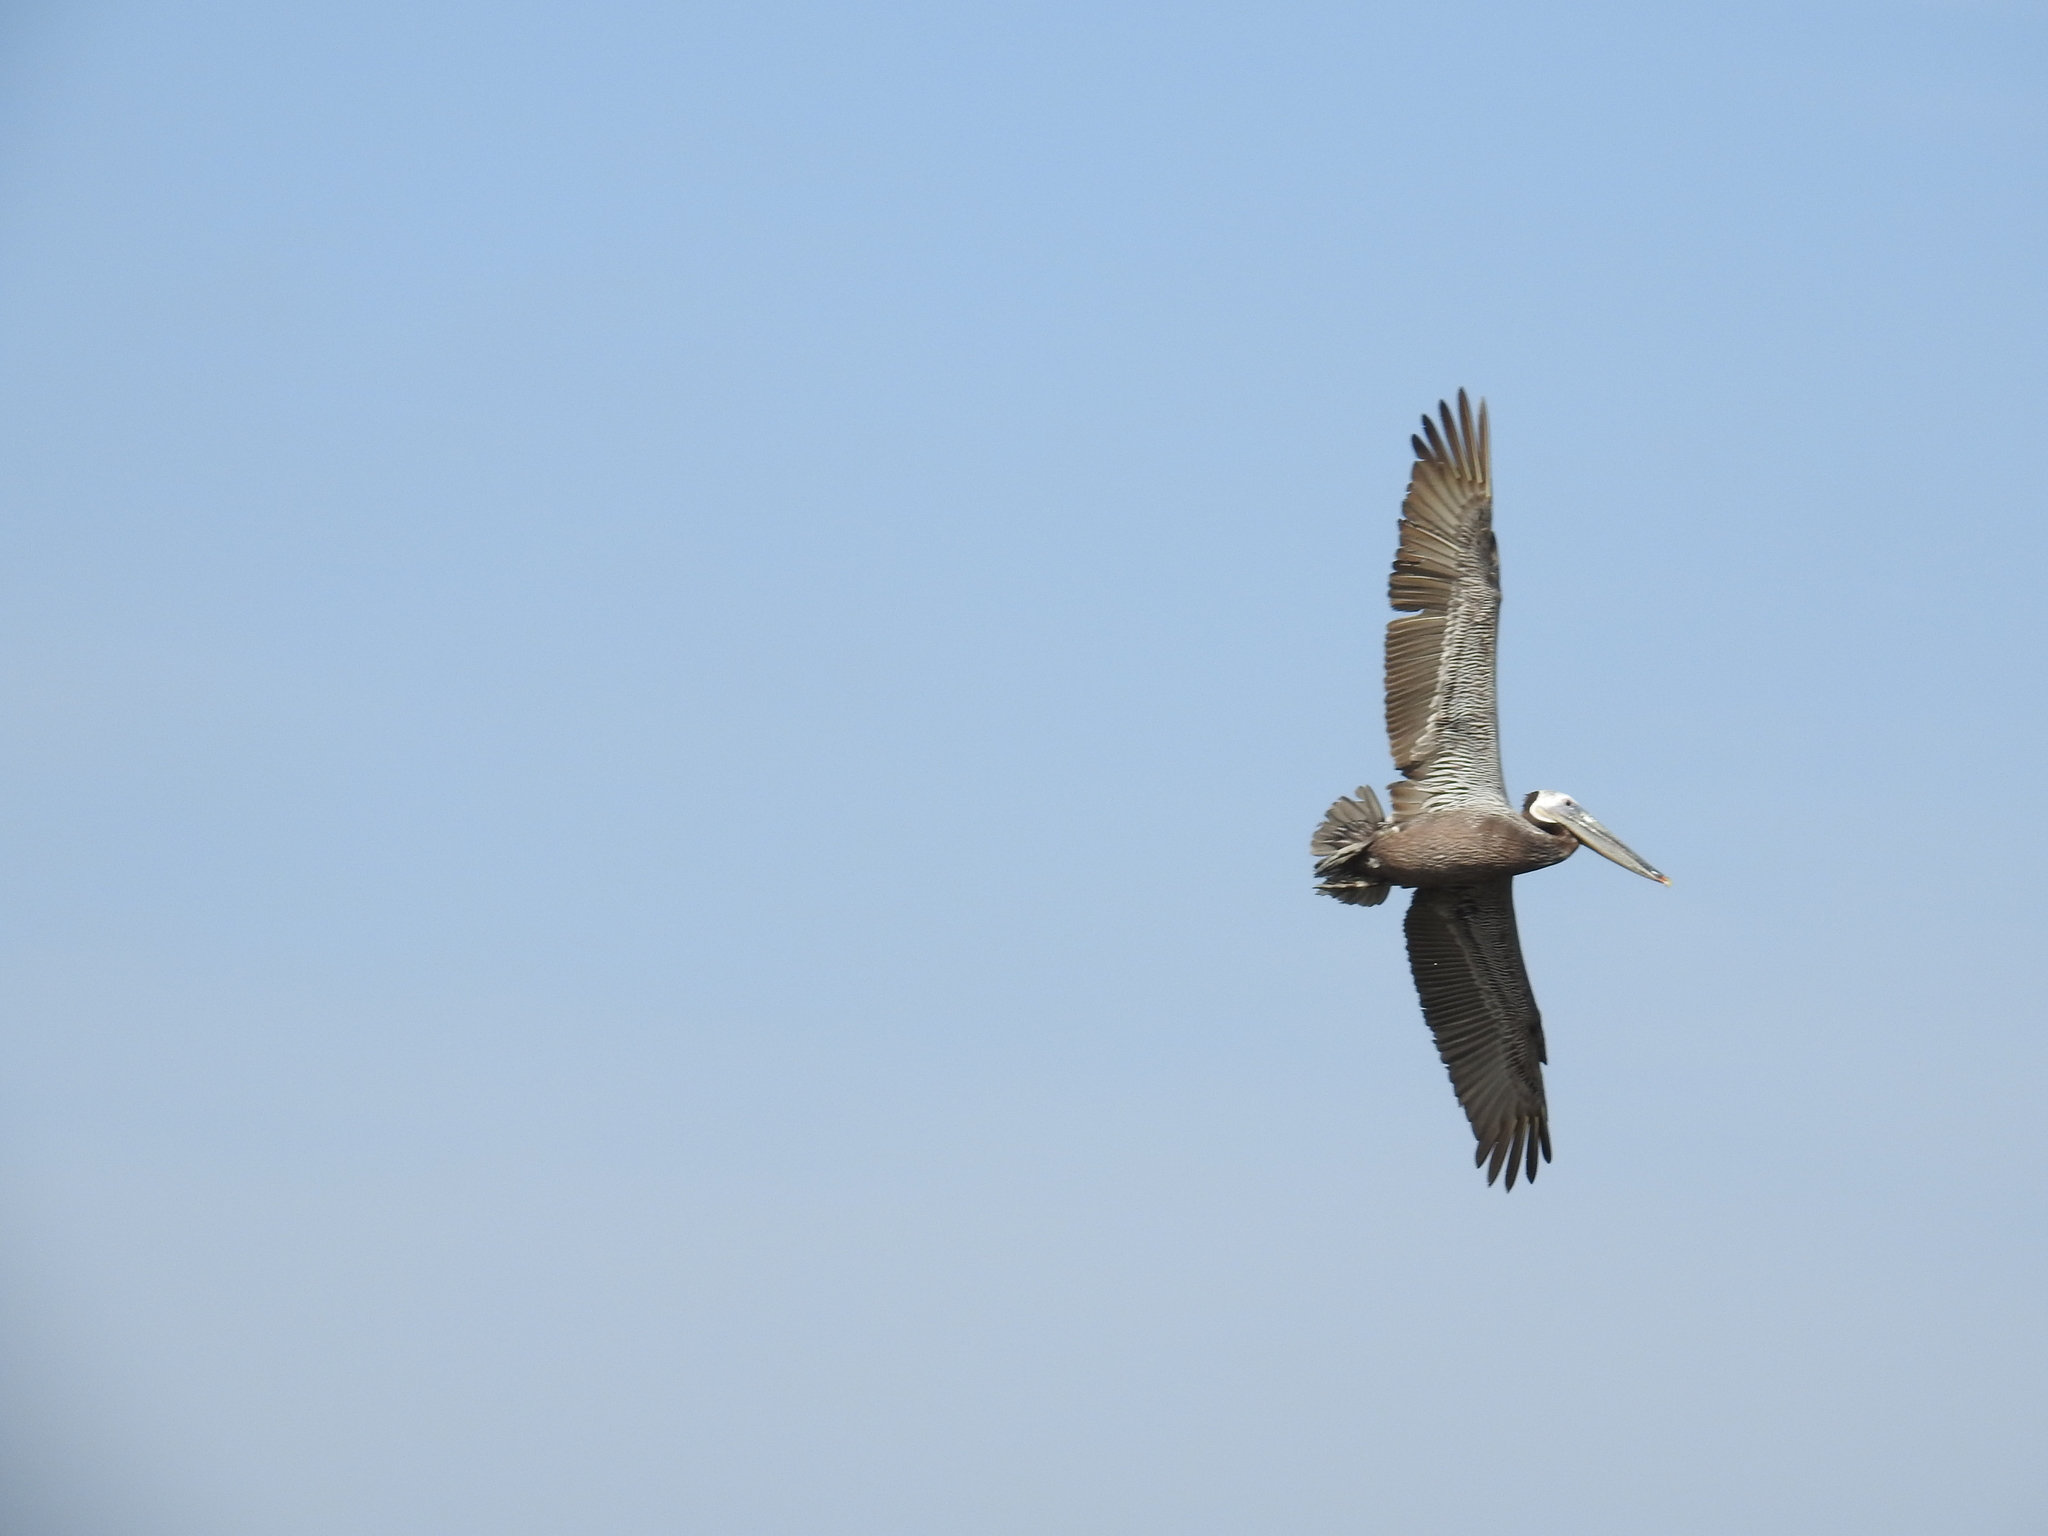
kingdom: Animalia
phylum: Chordata
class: Aves
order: Pelecaniformes
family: Pelecanidae
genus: Pelecanus
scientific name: Pelecanus occidentalis
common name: Brown pelican
